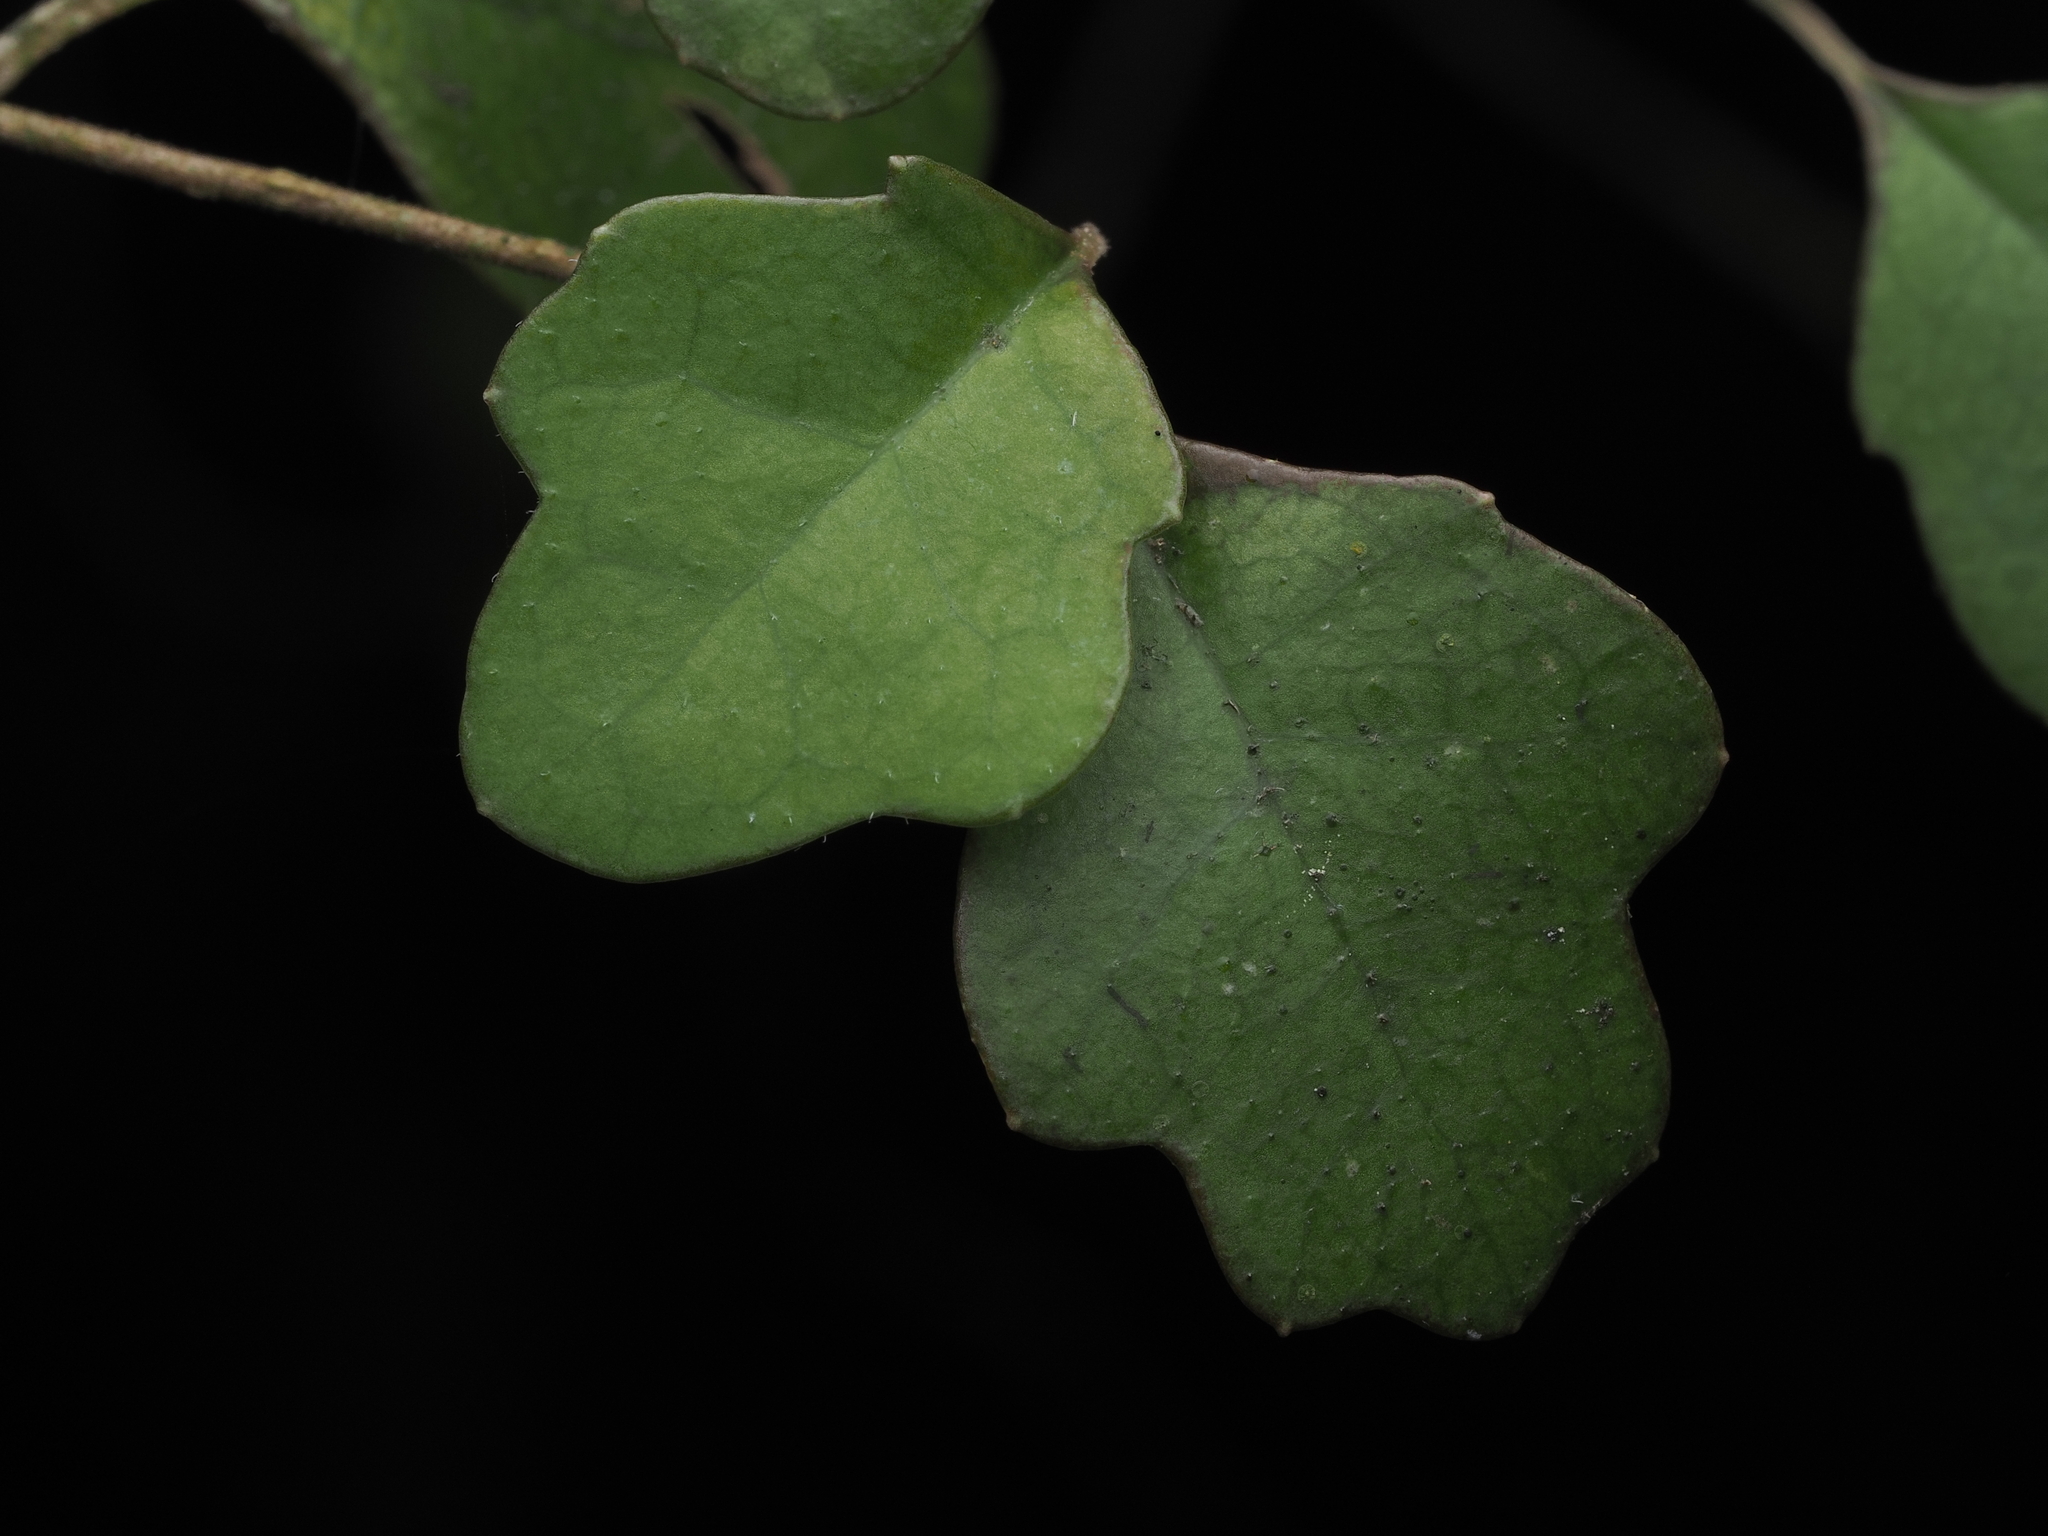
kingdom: Plantae
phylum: Tracheophyta
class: Magnoliopsida
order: Apiales
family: Pennantiaceae
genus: Pennantia
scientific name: Pennantia corymbosa
